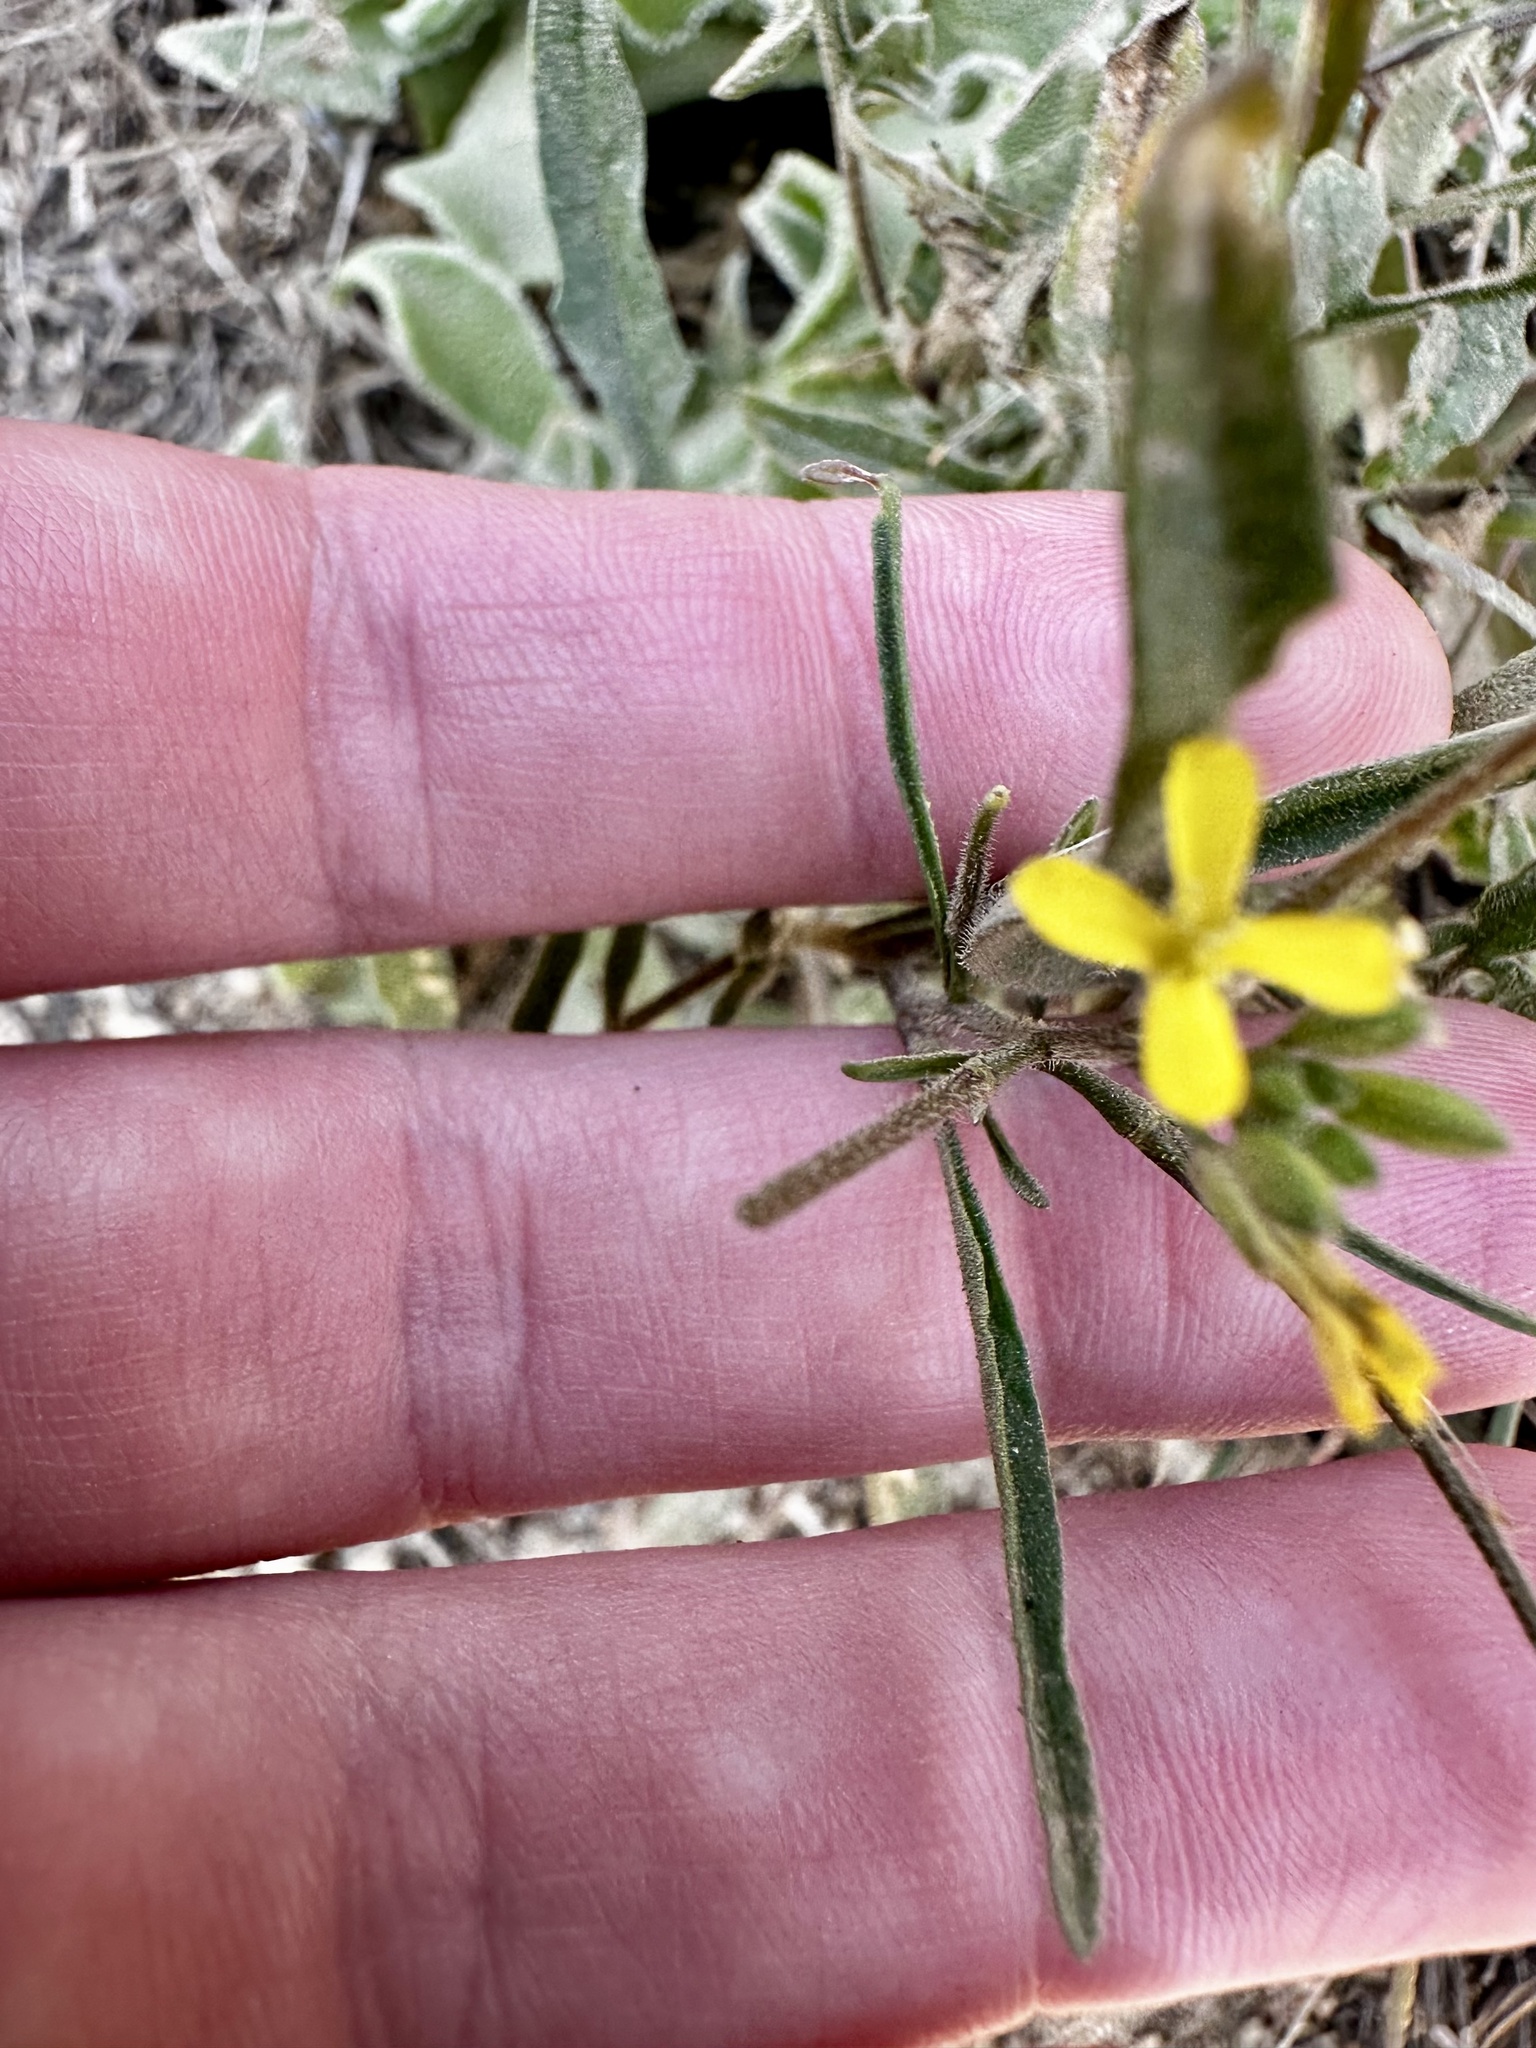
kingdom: Plantae
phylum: Tracheophyta
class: Magnoliopsida
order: Brassicales
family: Brassicaceae
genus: Sisymbrium
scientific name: Sisymbrium orientale
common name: Eastern rocket
